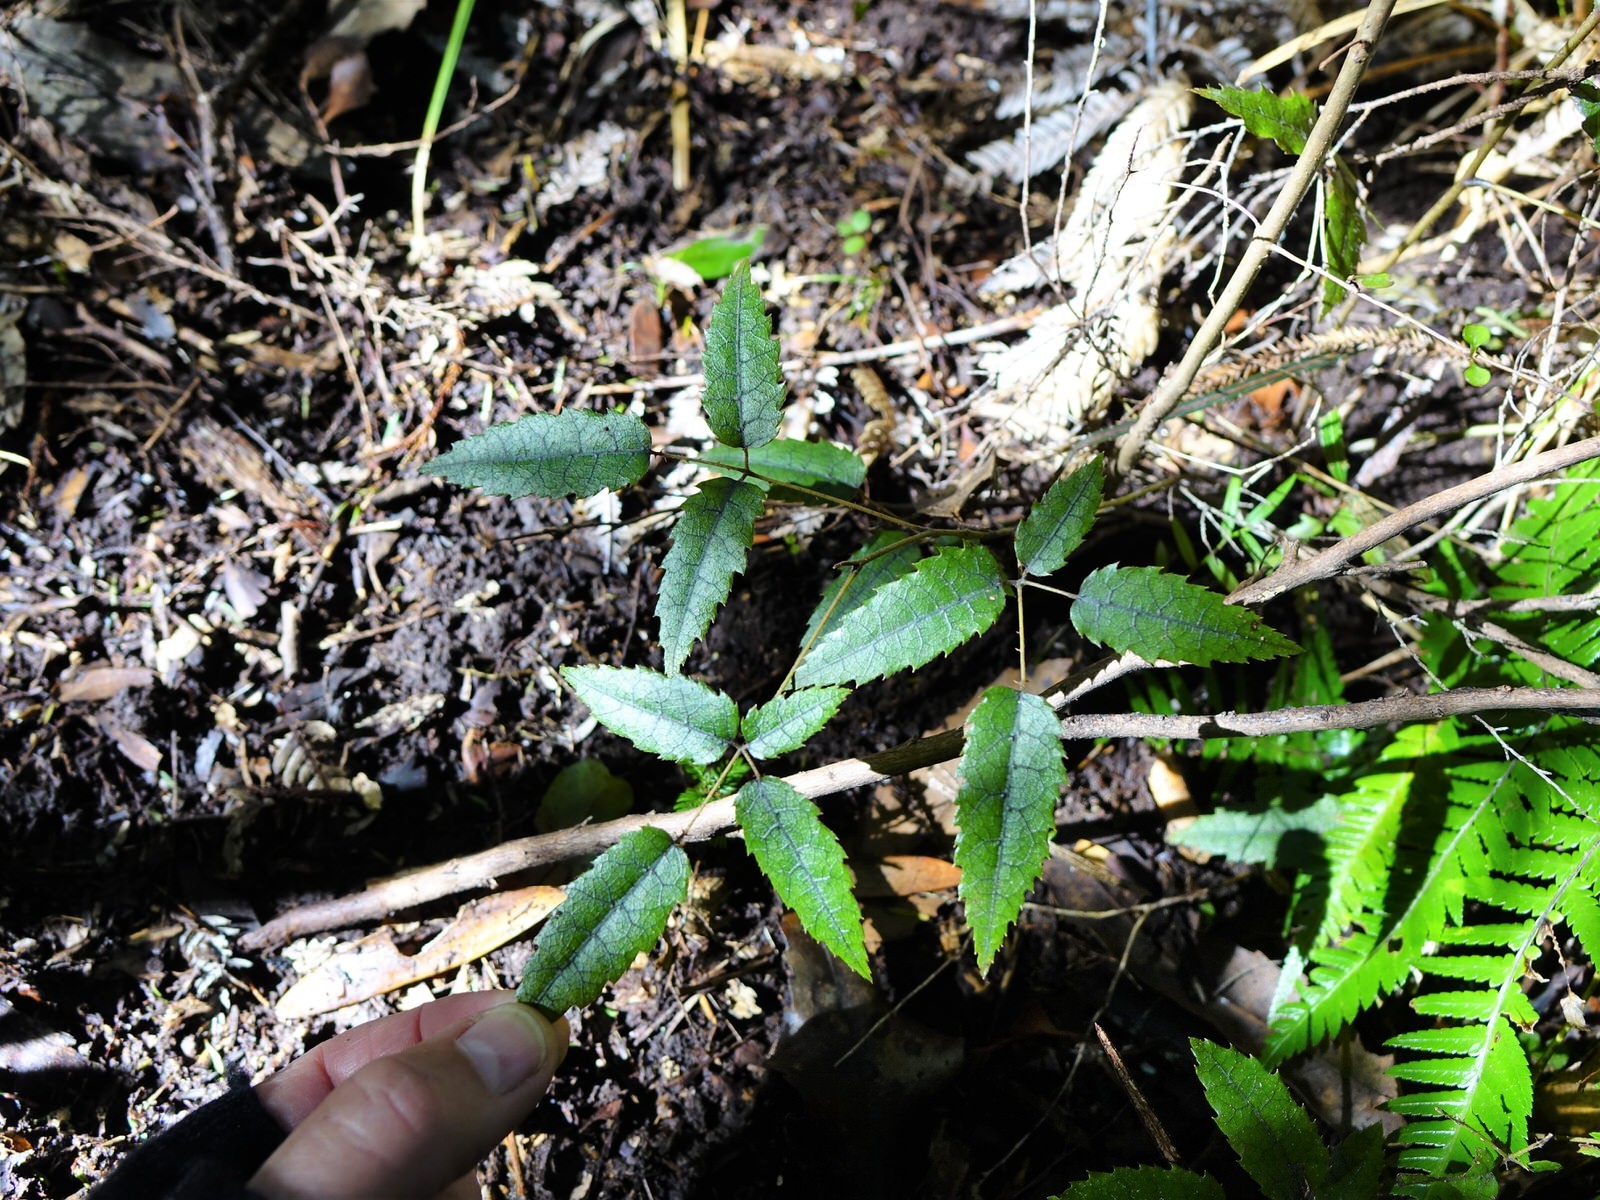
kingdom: Plantae
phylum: Tracheophyta
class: Magnoliopsida
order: Rosales
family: Rosaceae
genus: Rubus
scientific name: Rubus cissoides
